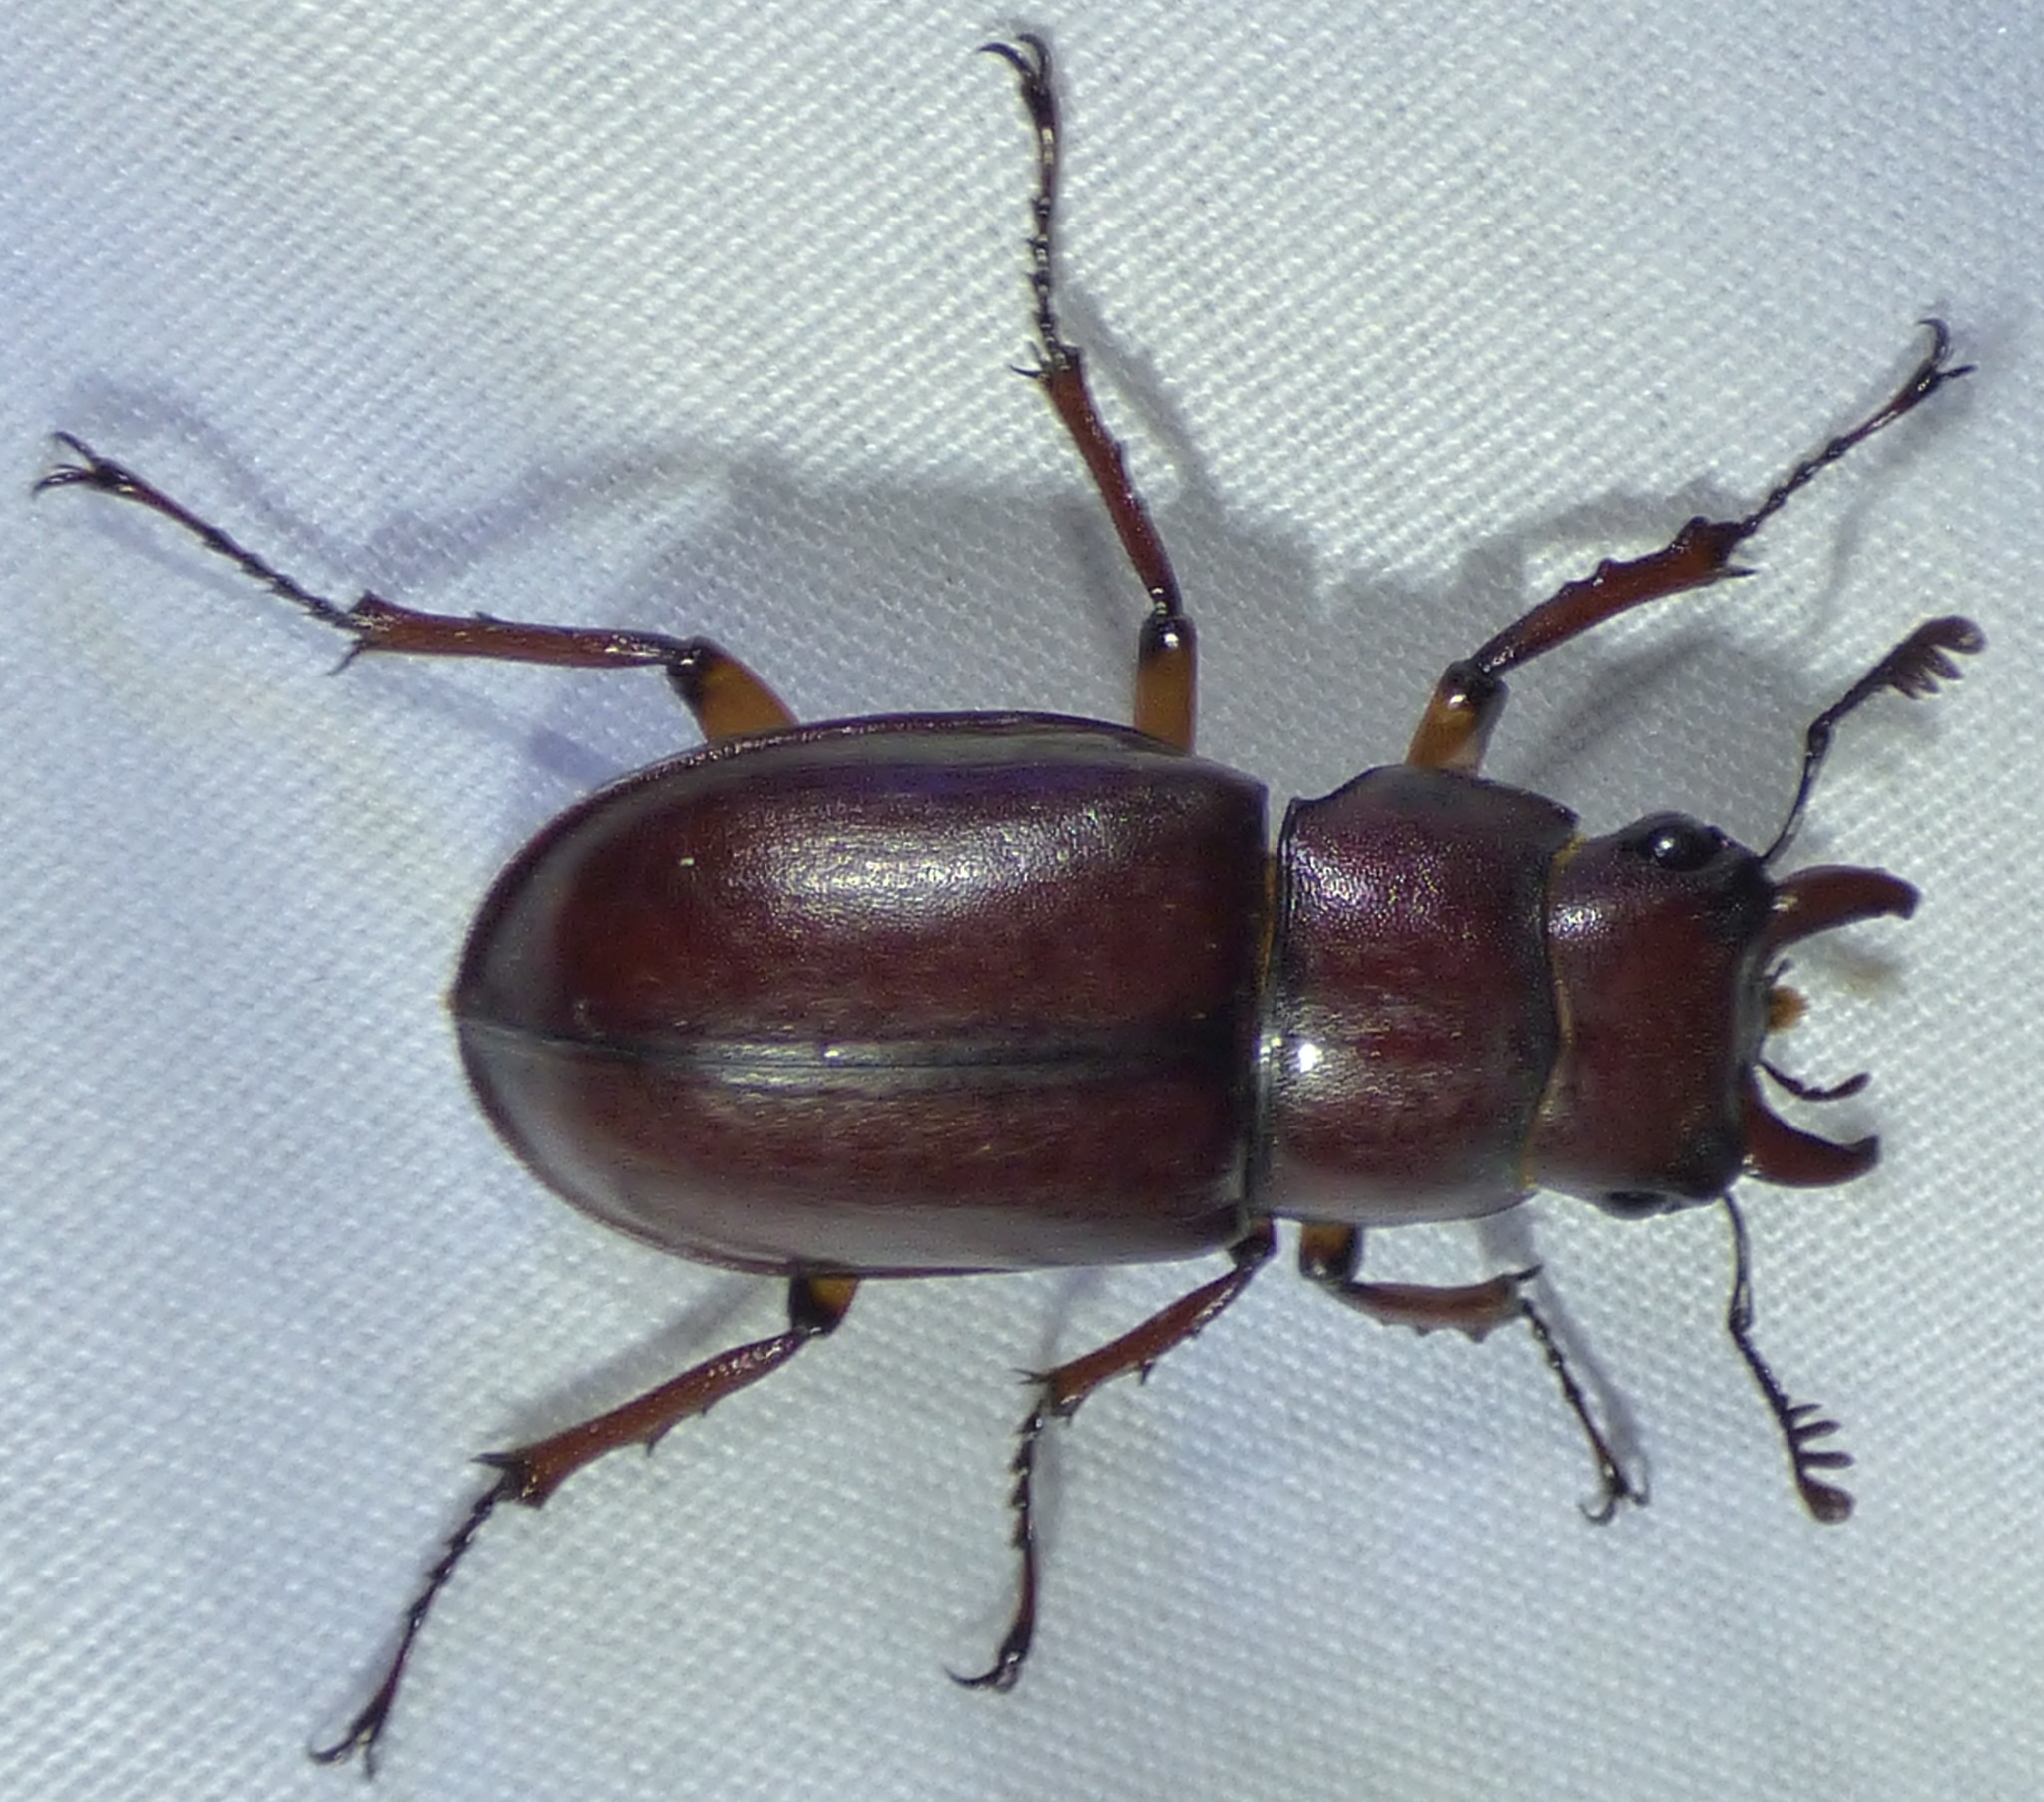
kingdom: Animalia
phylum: Arthropoda
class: Insecta
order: Coleoptera
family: Lucanidae
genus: Lucanus
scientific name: Lucanus capreolus
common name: Stag beetle
